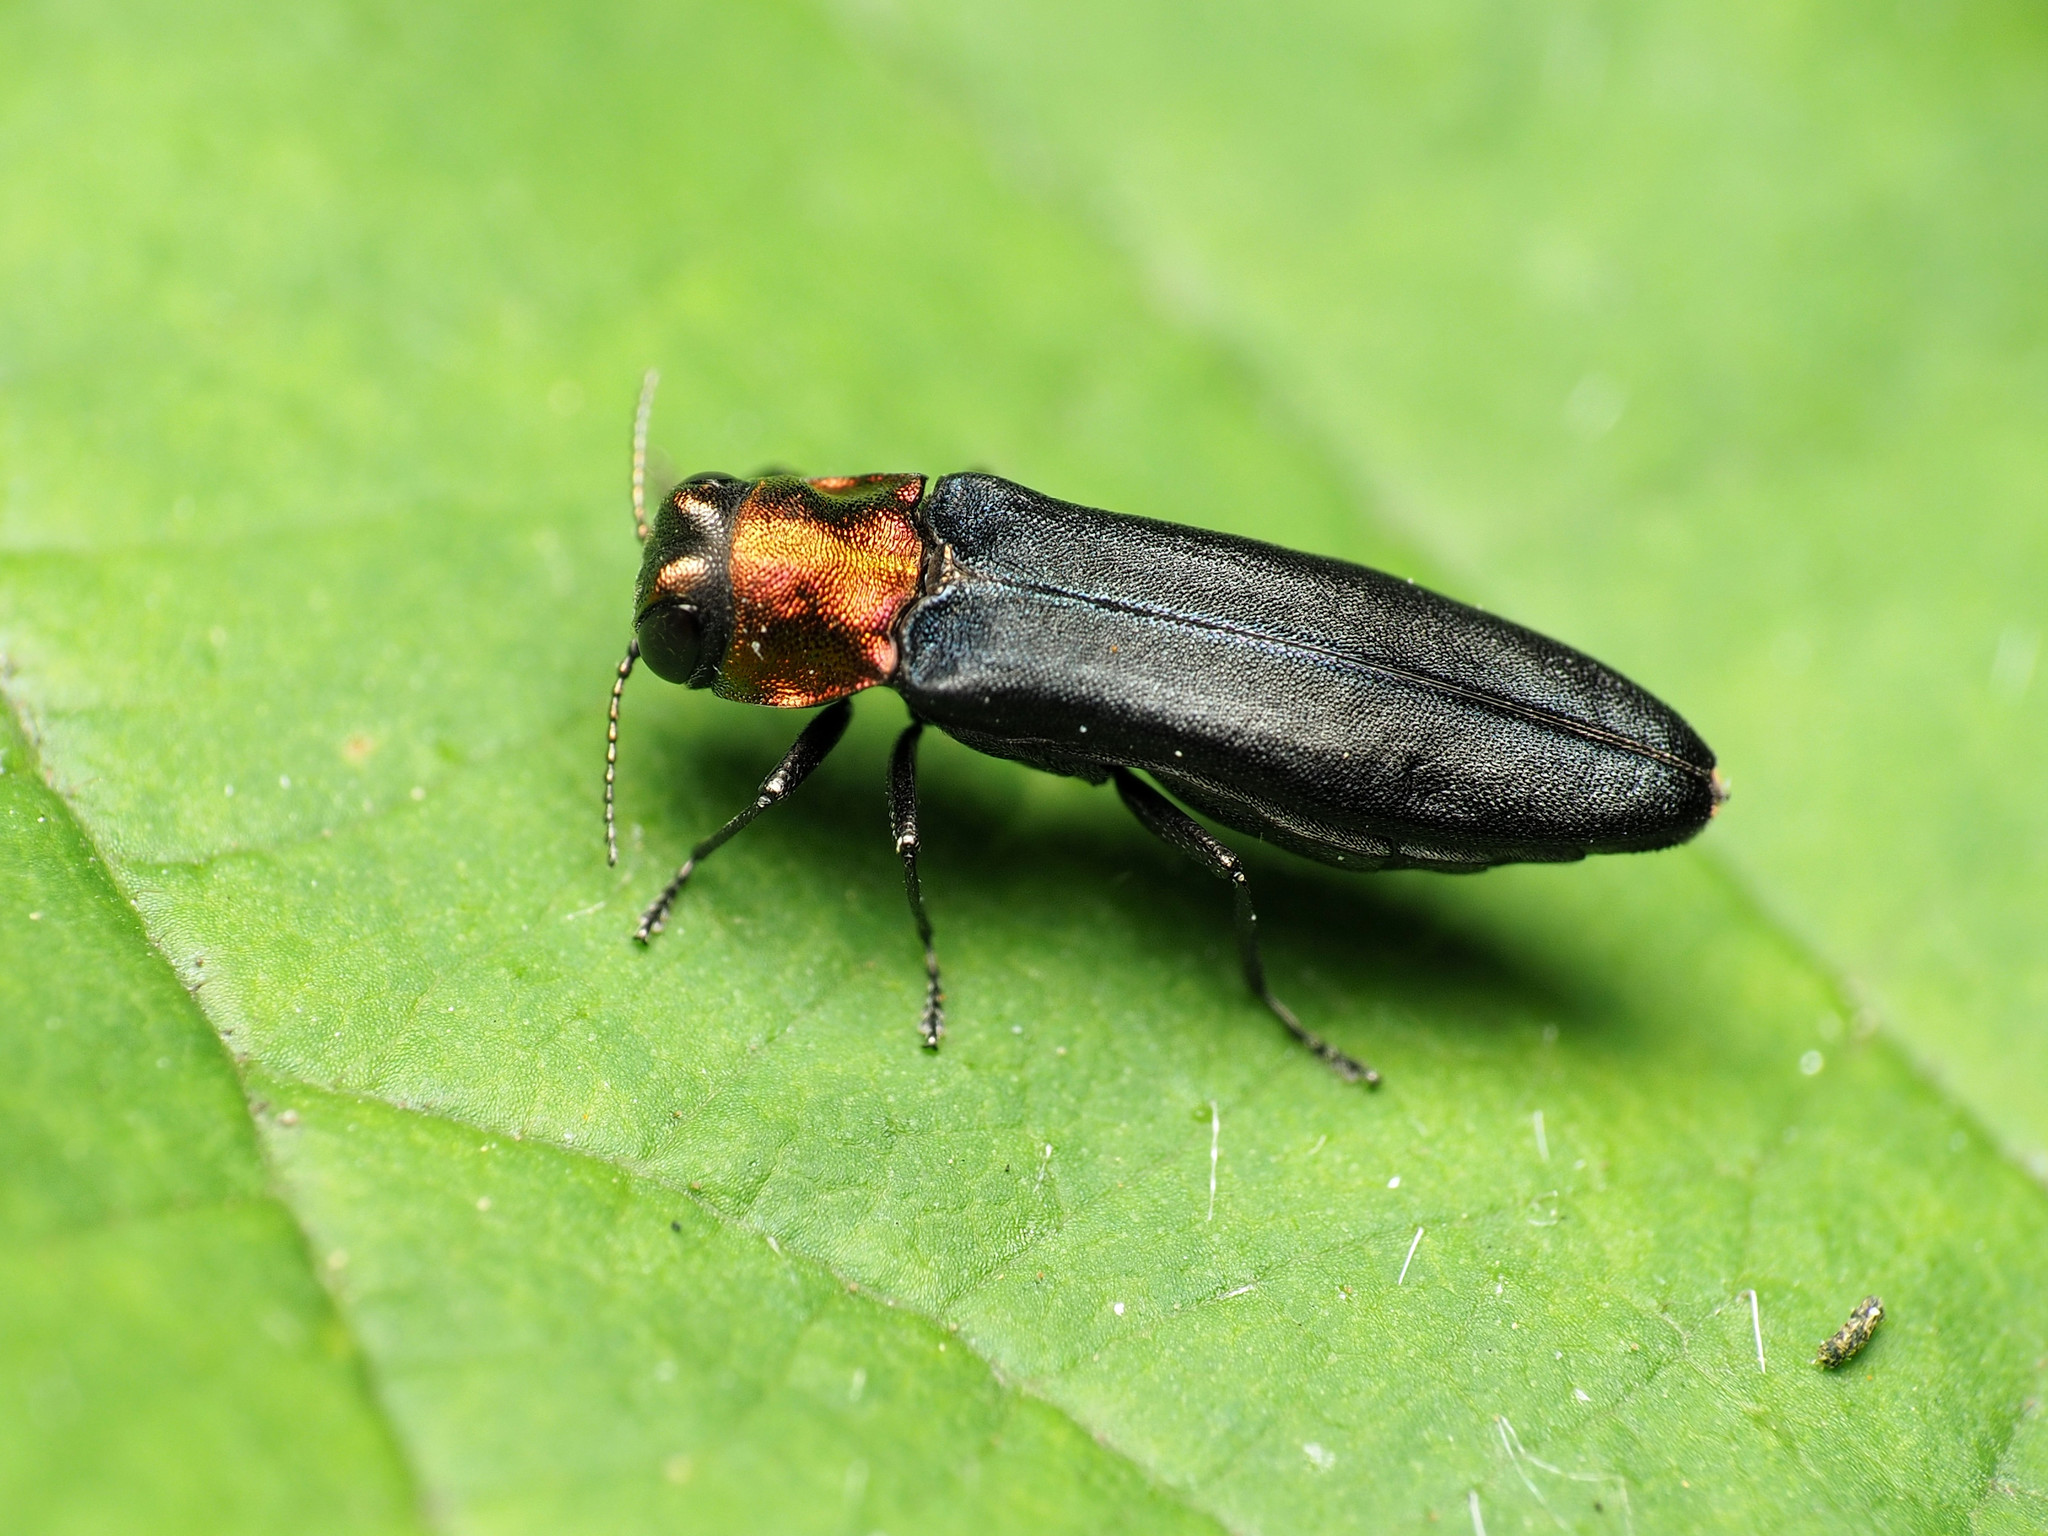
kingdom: Animalia
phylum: Arthropoda
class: Insecta
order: Coleoptera
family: Buprestidae
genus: Agrilus
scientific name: Agrilus ruficollis
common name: Red-necked cane borer beetle
